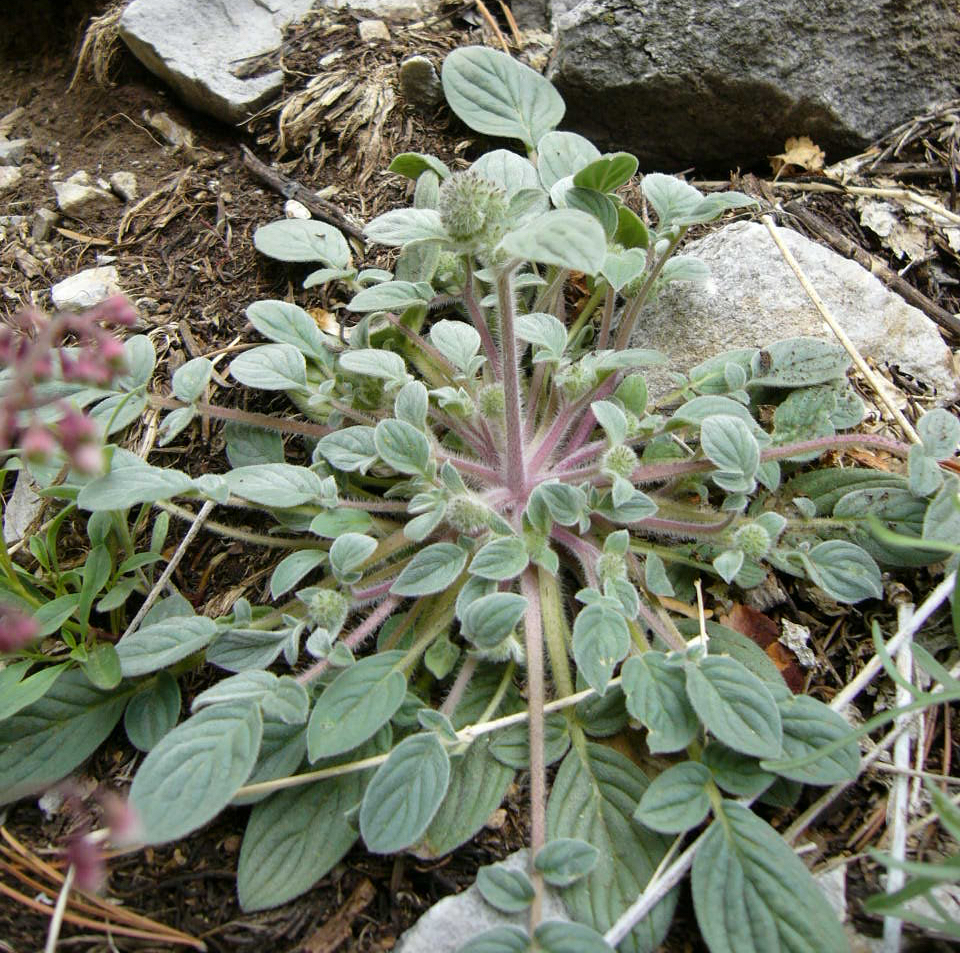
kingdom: Plantae
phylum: Tracheophyta
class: Magnoliopsida
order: Boraginales
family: Hydrophyllaceae
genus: Phacelia
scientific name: Phacelia hastata
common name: Silver-leaved phacelia
